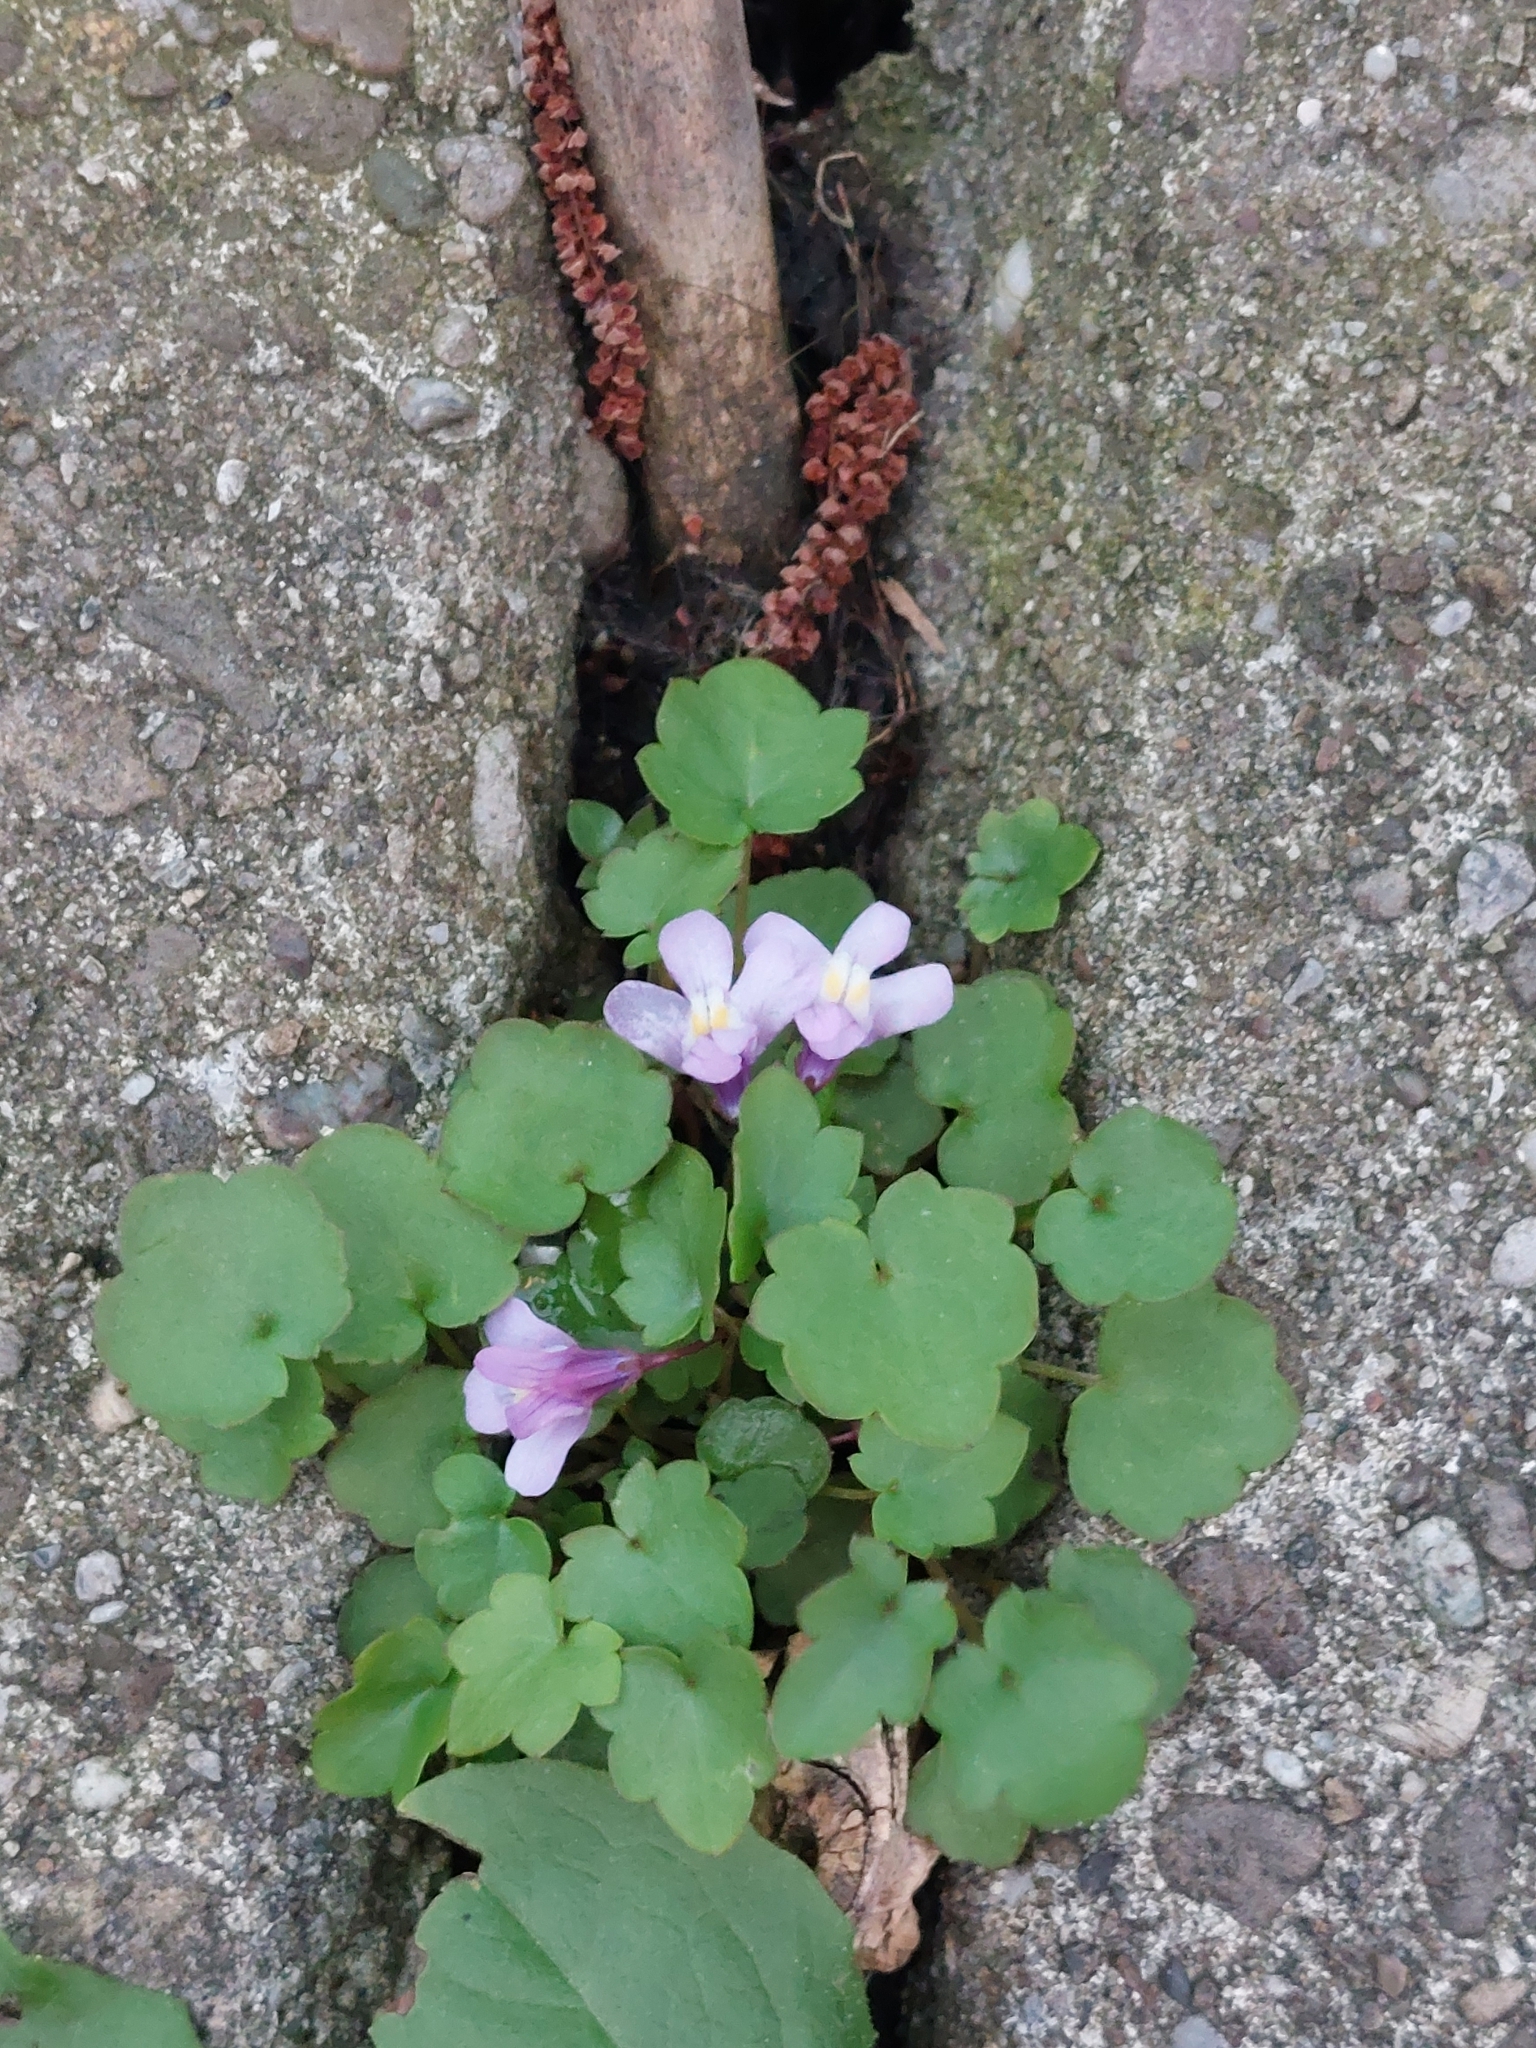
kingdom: Plantae
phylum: Tracheophyta
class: Magnoliopsida
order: Lamiales
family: Plantaginaceae
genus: Cymbalaria
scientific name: Cymbalaria muralis
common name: Ivy-leaved toadflax
